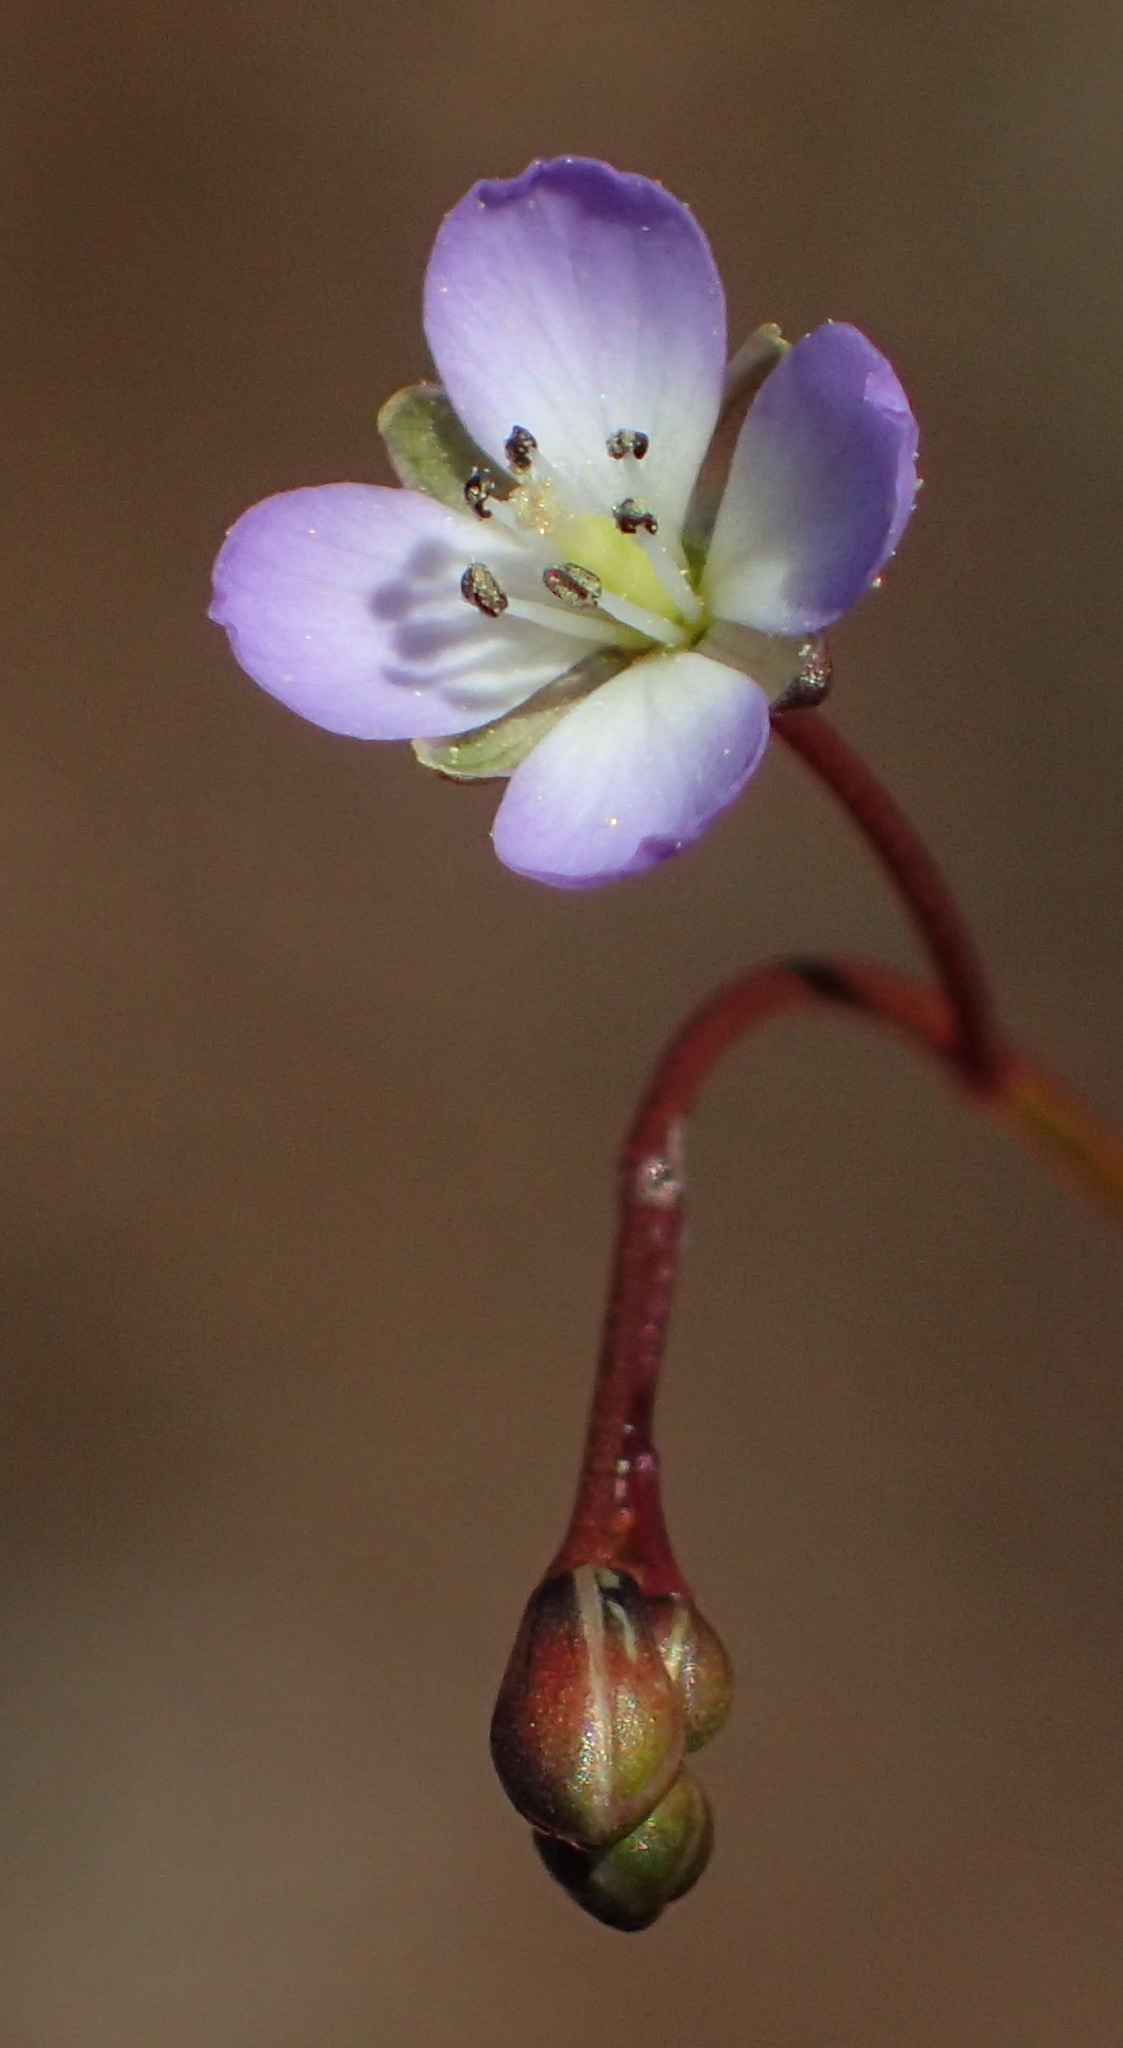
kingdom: Plantae
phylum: Tracheophyta
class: Magnoliopsida
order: Brassicales
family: Brassicaceae
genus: Heliophila
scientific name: Heliophila pinnata
